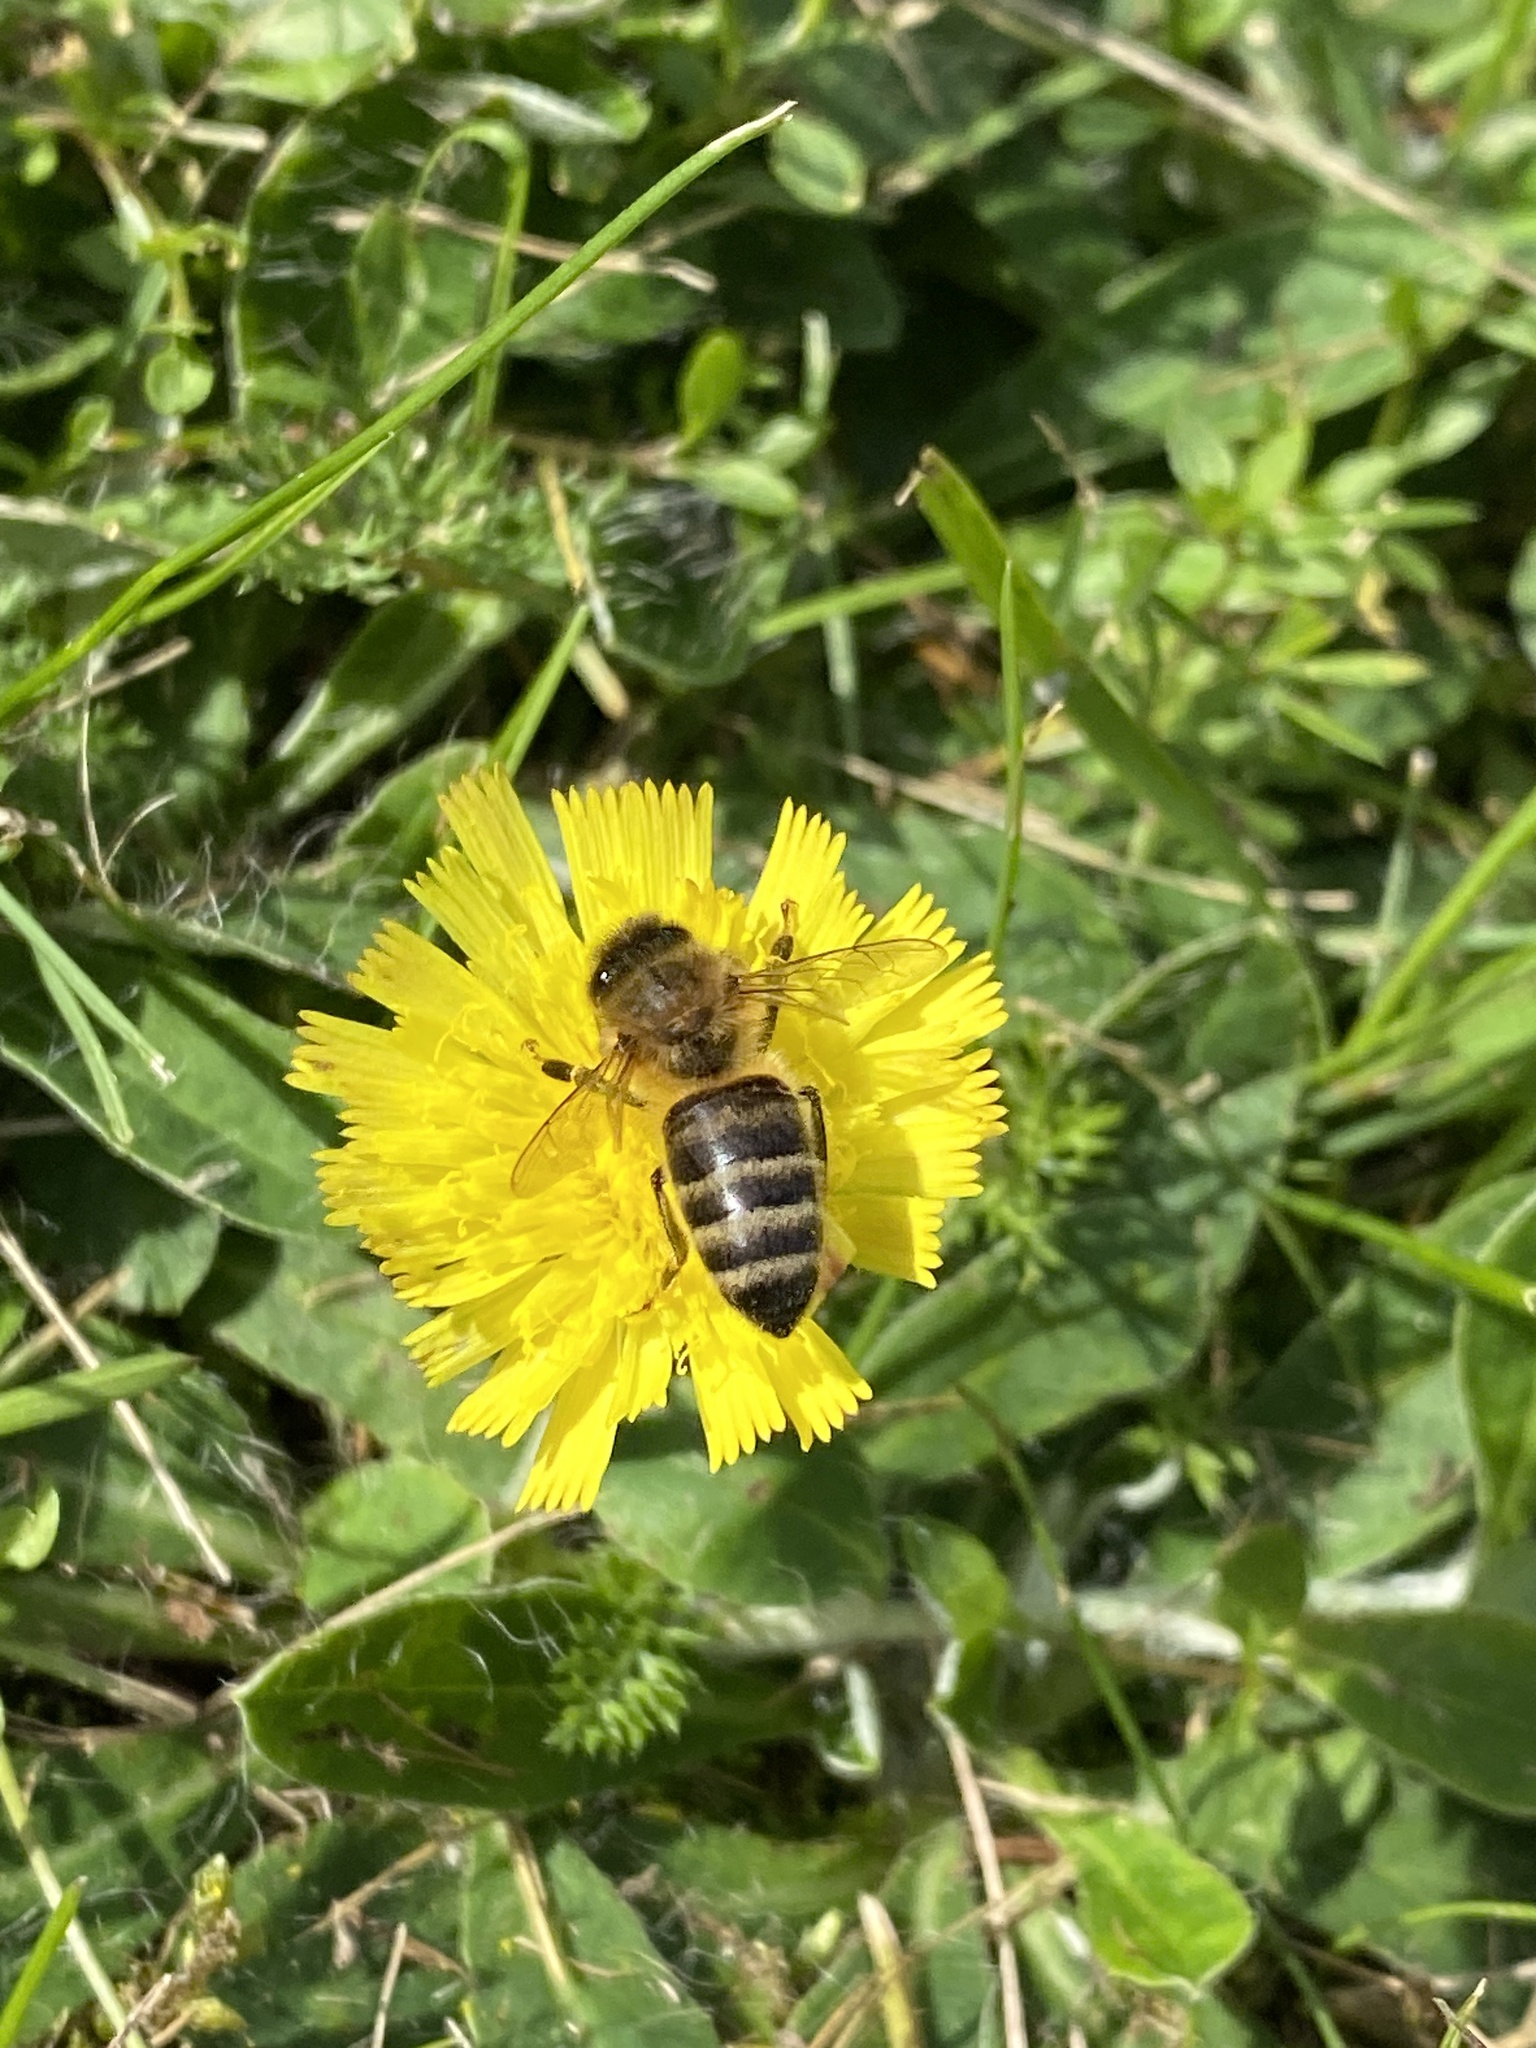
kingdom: Animalia
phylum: Arthropoda
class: Insecta
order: Hymenoptera
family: Apidae
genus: Apis
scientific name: Apis mellifera
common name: Honey bee
